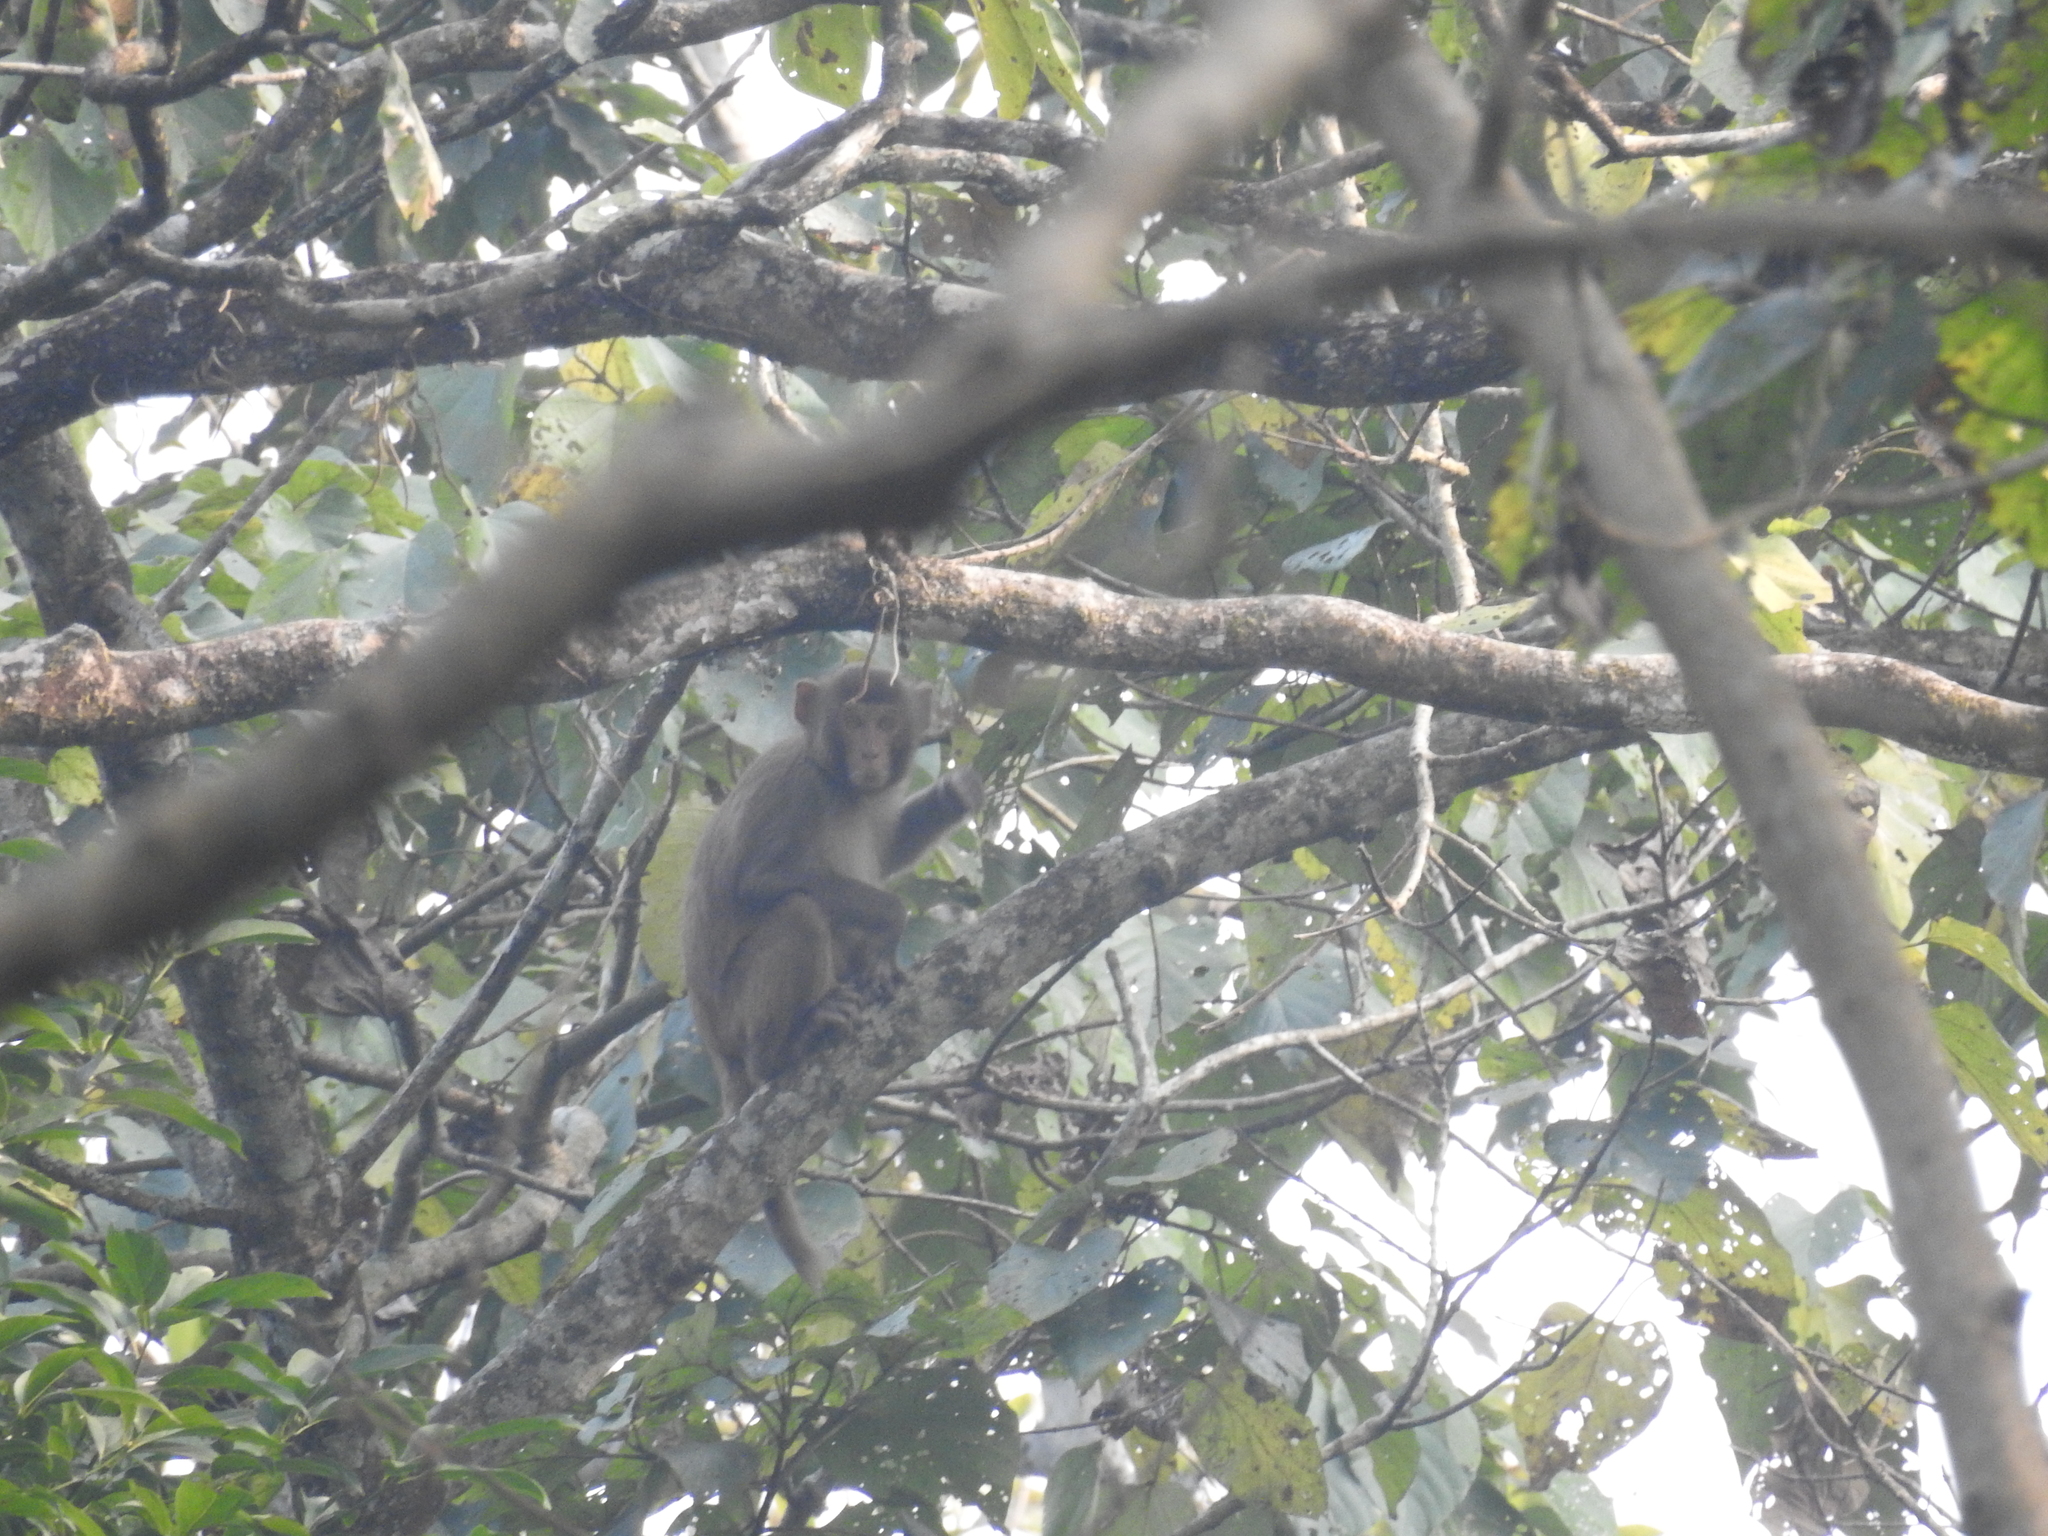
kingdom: Animalia
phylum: Chordata
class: Mammalia
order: Primates
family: Cercopithecidae
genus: Macaca
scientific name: Macaca mulatta
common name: Rhesus monkey
